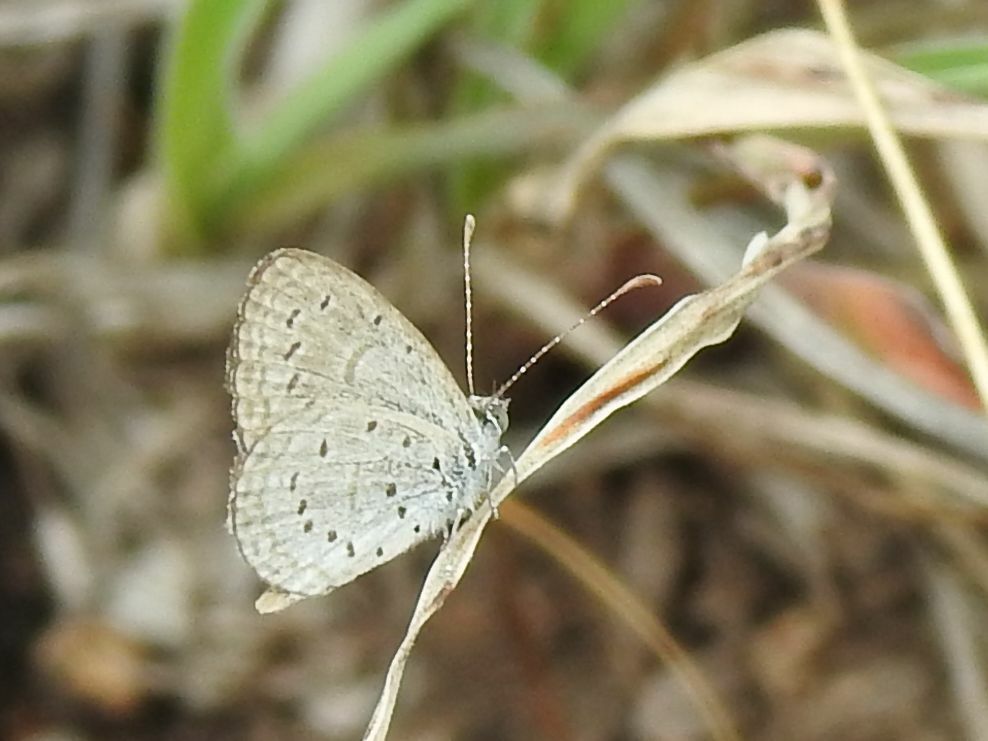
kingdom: Animalia
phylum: Arthropoda
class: Insecta
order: Lepidoptera
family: Lycaenidae
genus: Zizula
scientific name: Zizula hylax
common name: Gaika blue
